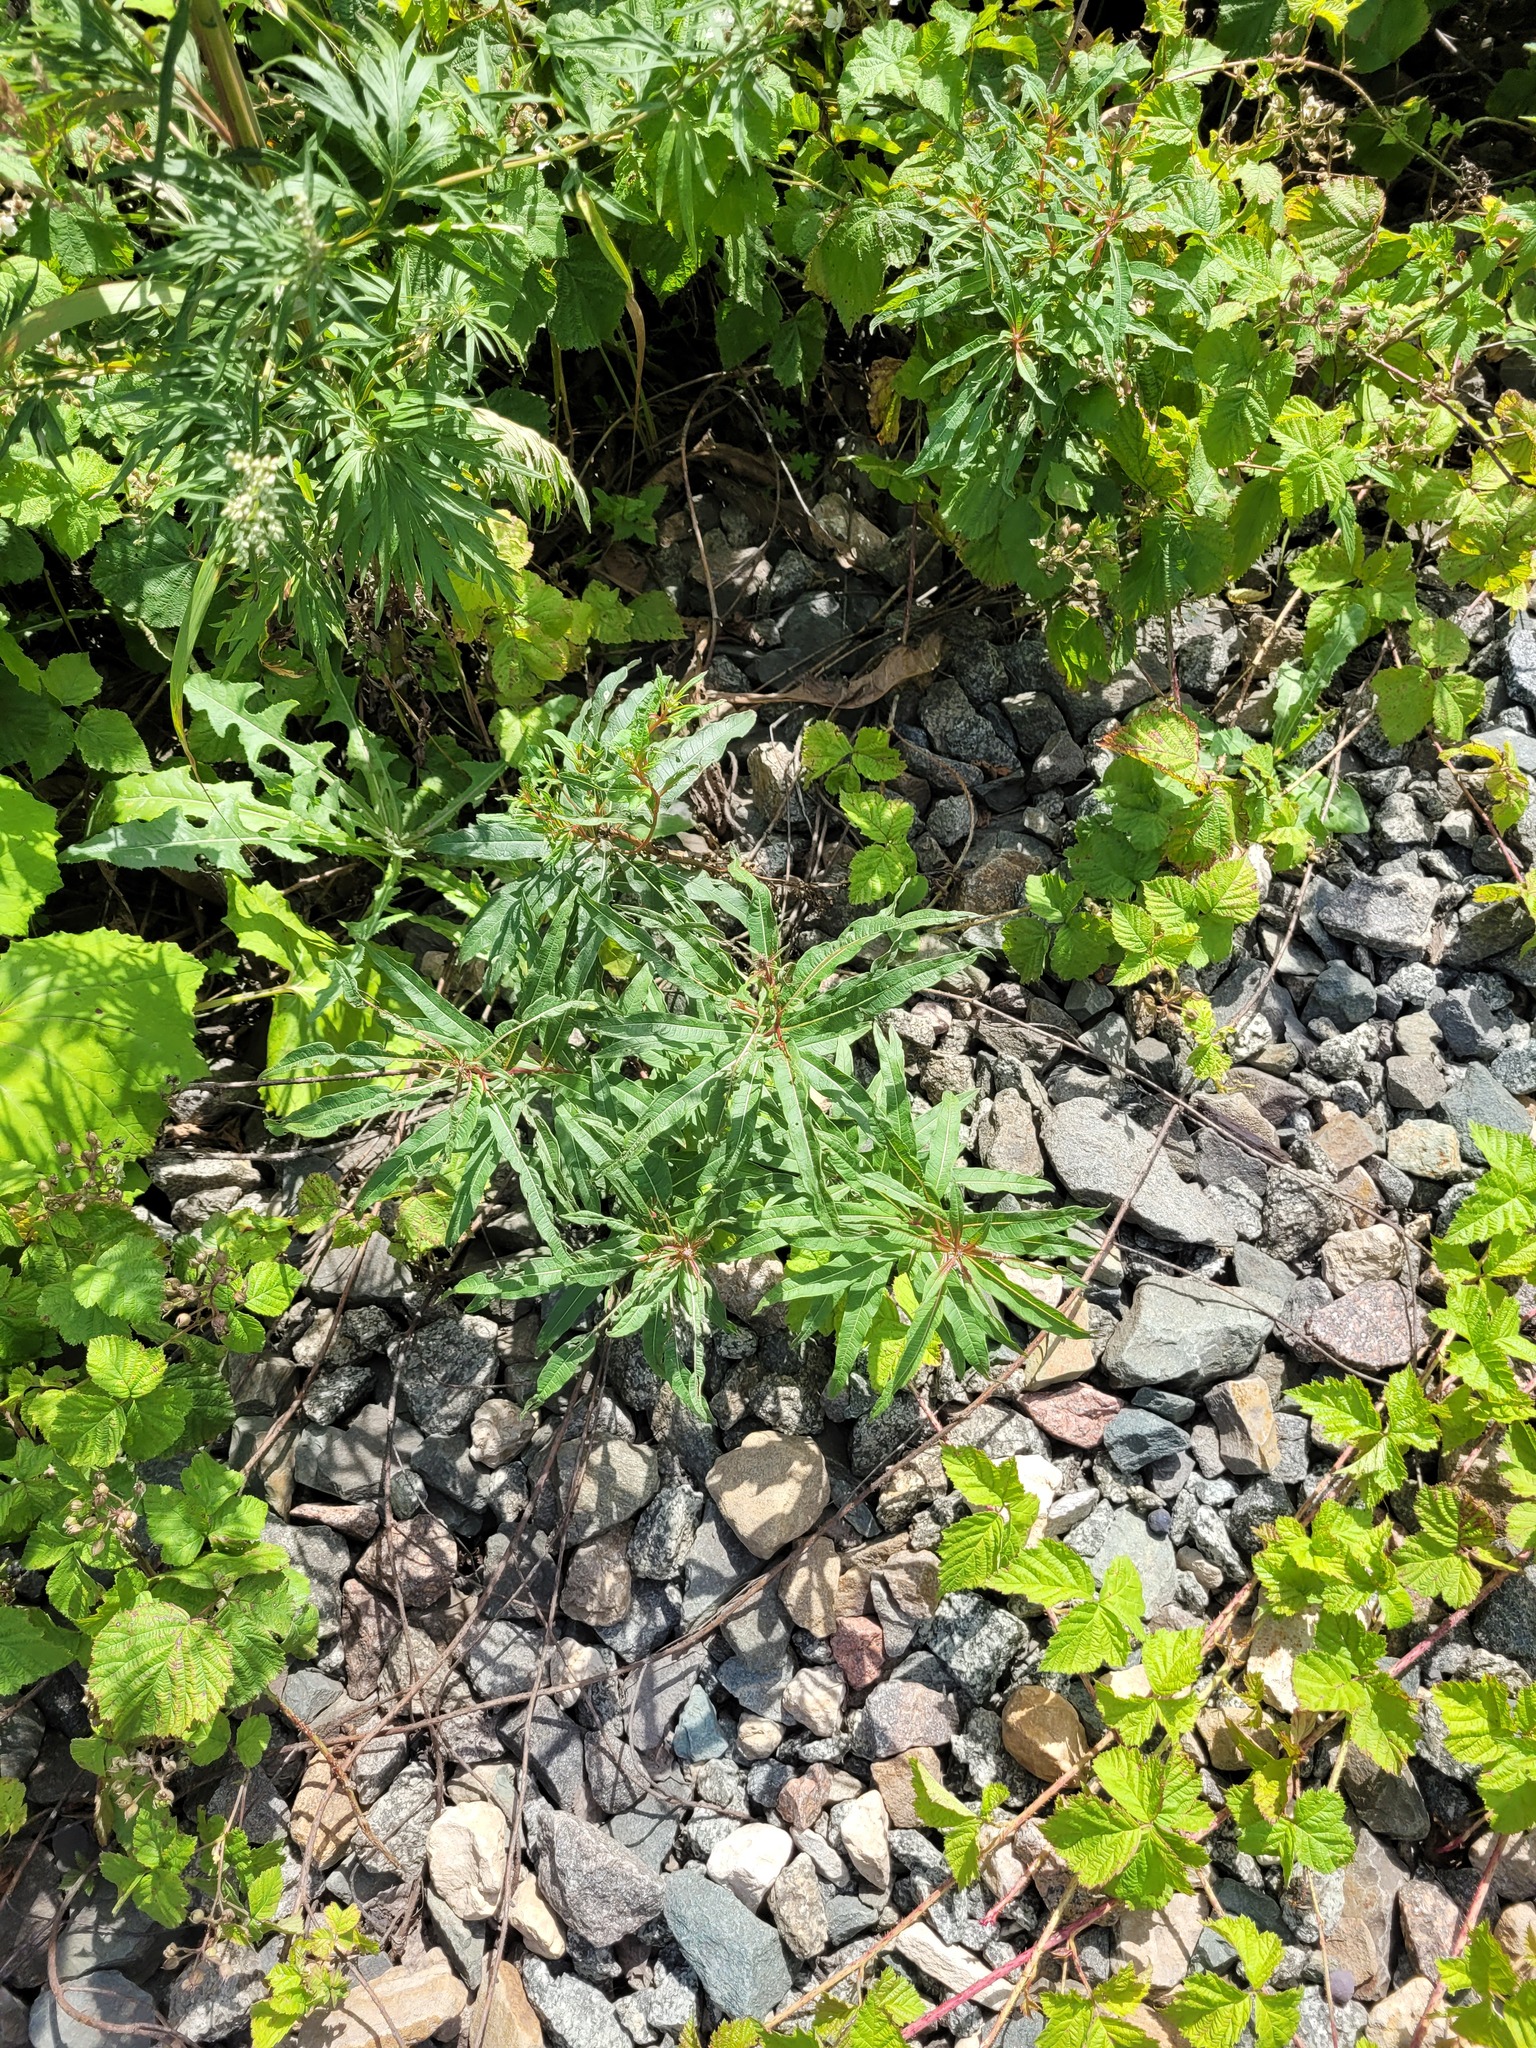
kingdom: Plantae
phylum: Tracheophyta
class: Magnoliopsida
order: Myrtales
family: Onagraceae
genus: Chamaenerion
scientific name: Chamaenerion angustifolium
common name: Fireweed
